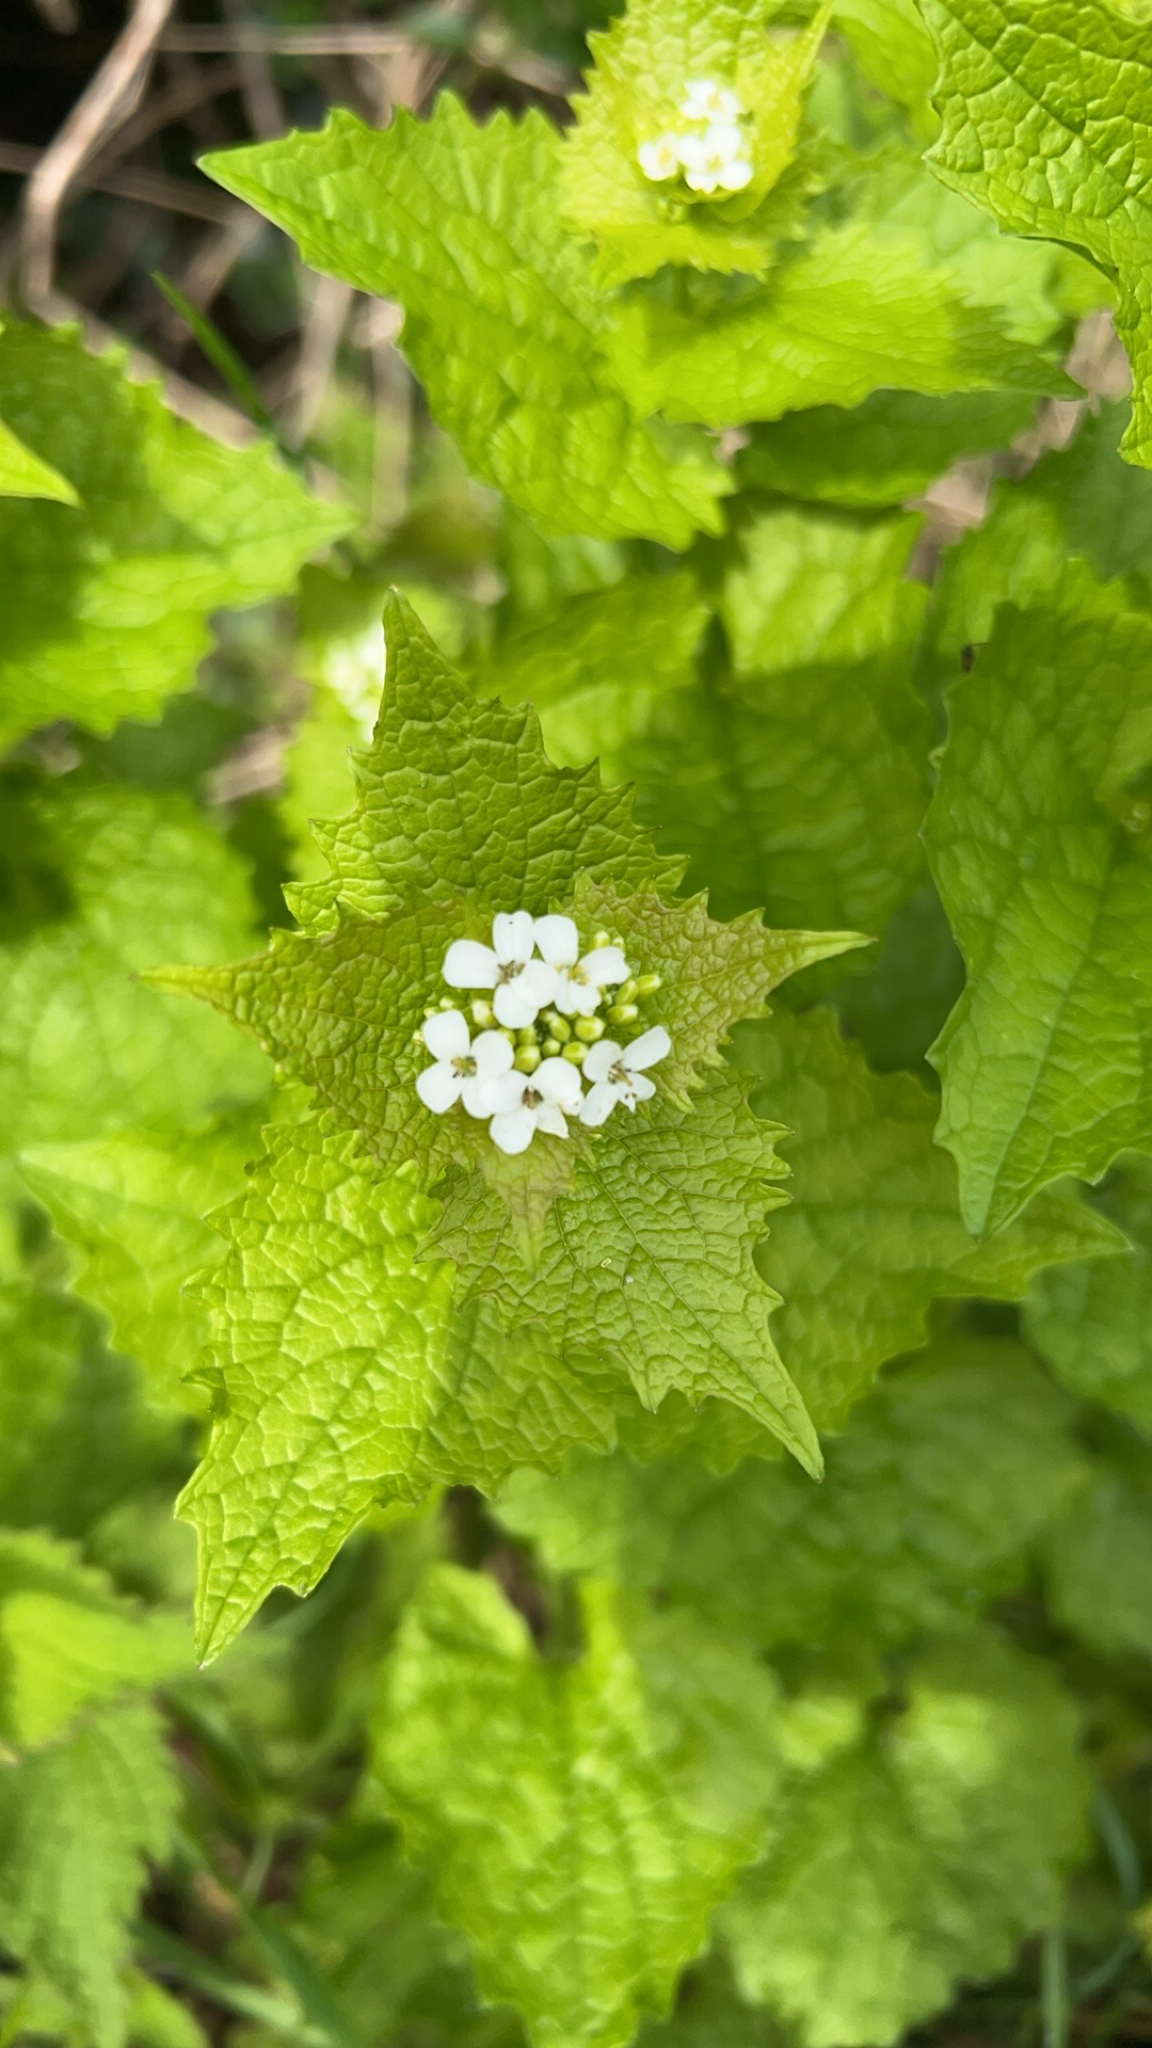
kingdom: Plantae
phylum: Tracheophyta
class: Magnoliopsida
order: Brassicales
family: Brassicaceae
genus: Alliaria
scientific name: Alliaria petiolata
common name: Garlic mustard
